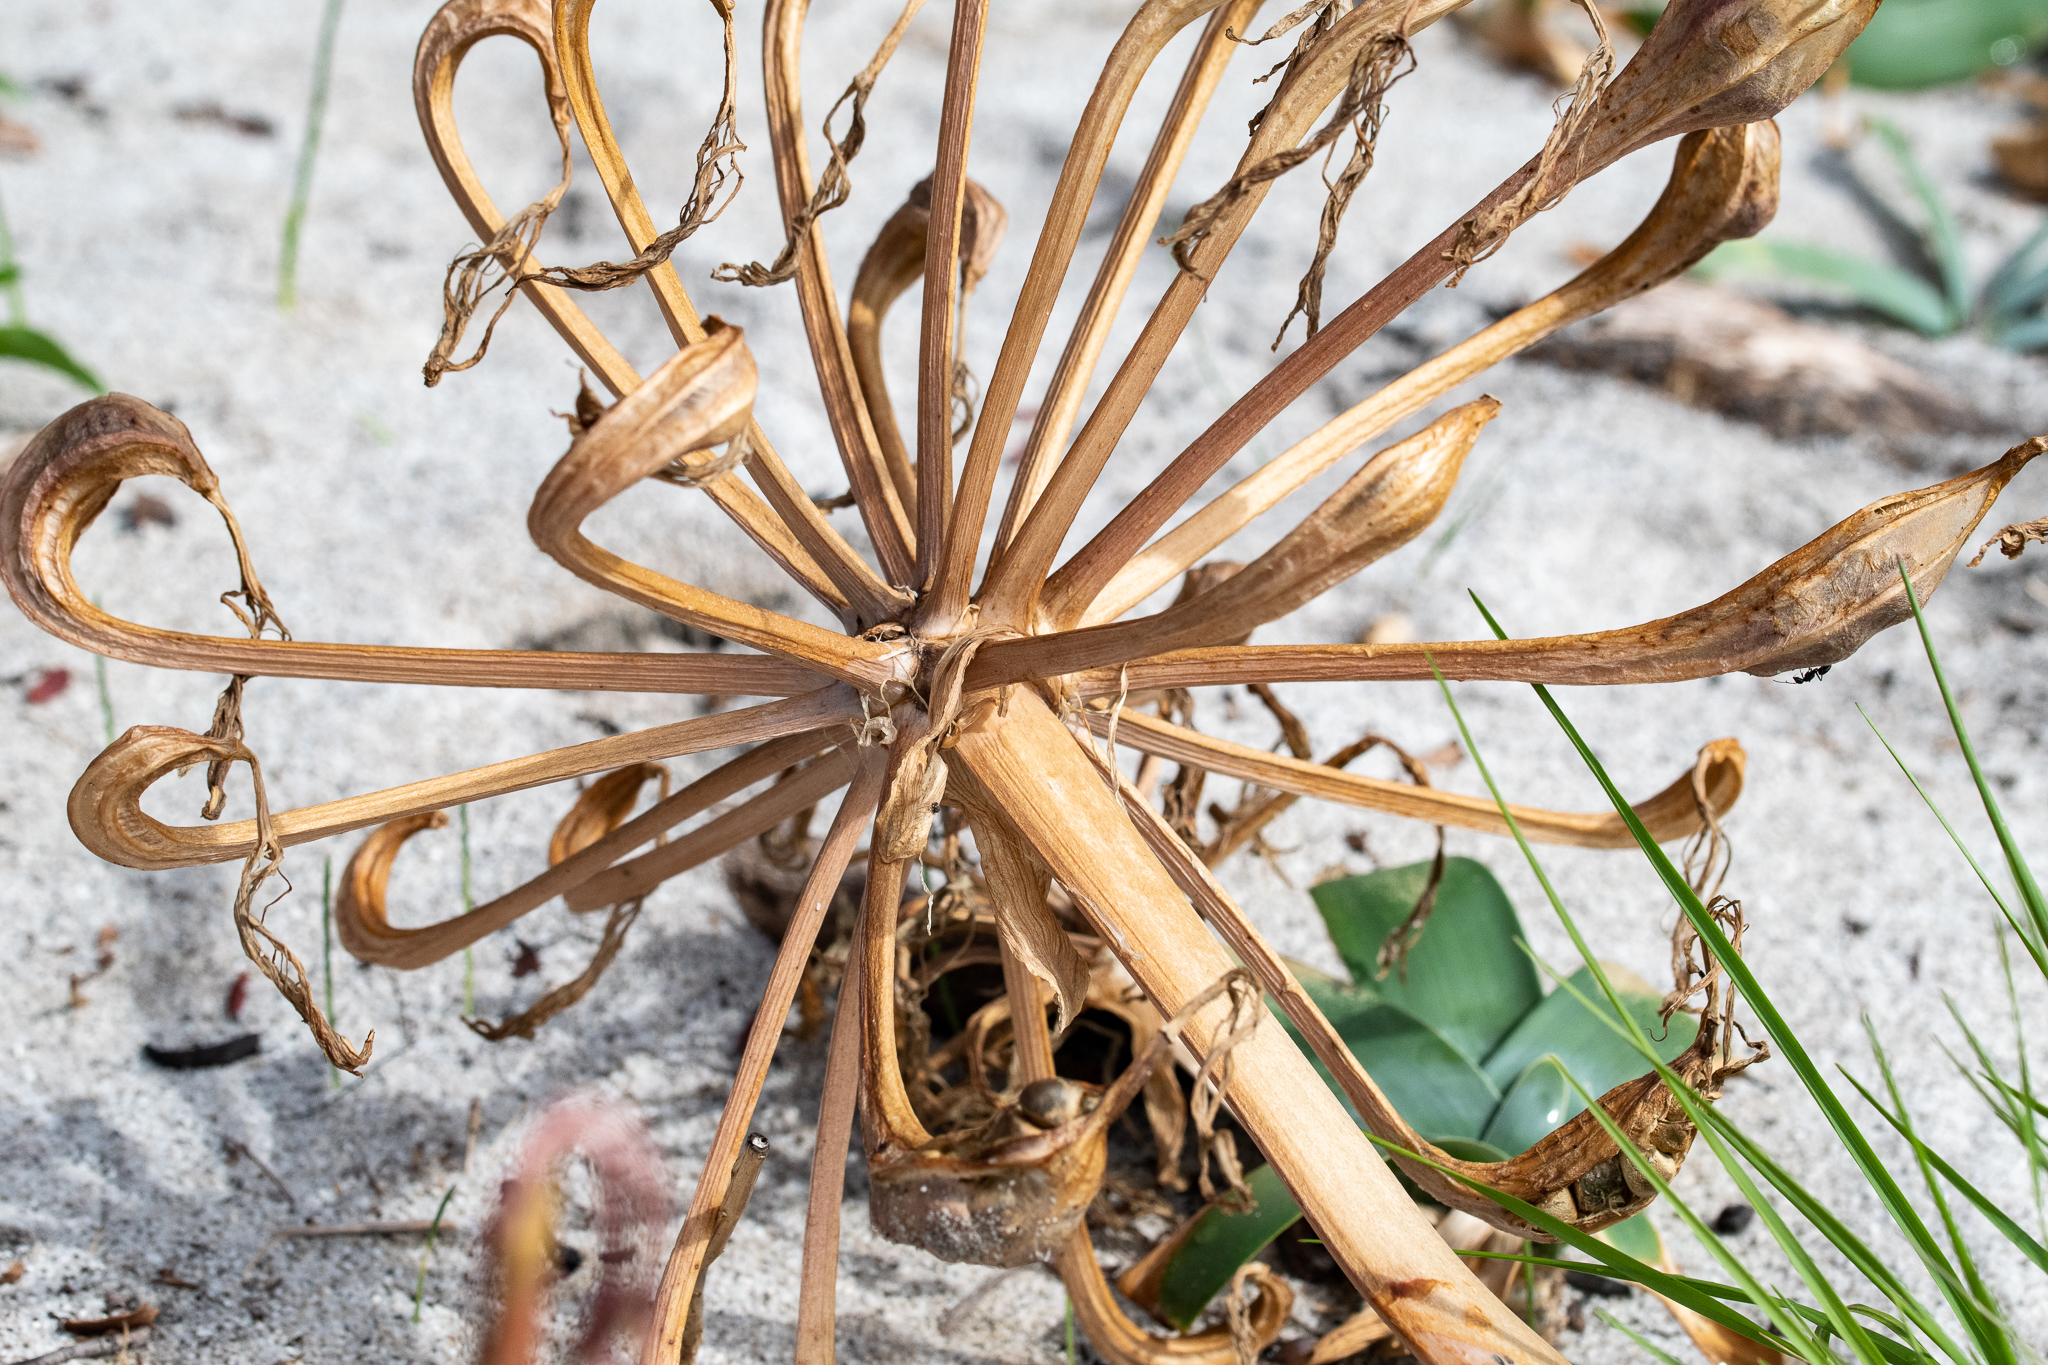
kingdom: Plantae
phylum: Tracheophyta
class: Liliopsida
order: Asparagales
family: Amaryllidaceae
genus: Ammocharis
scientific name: Ammocharis longifolia
